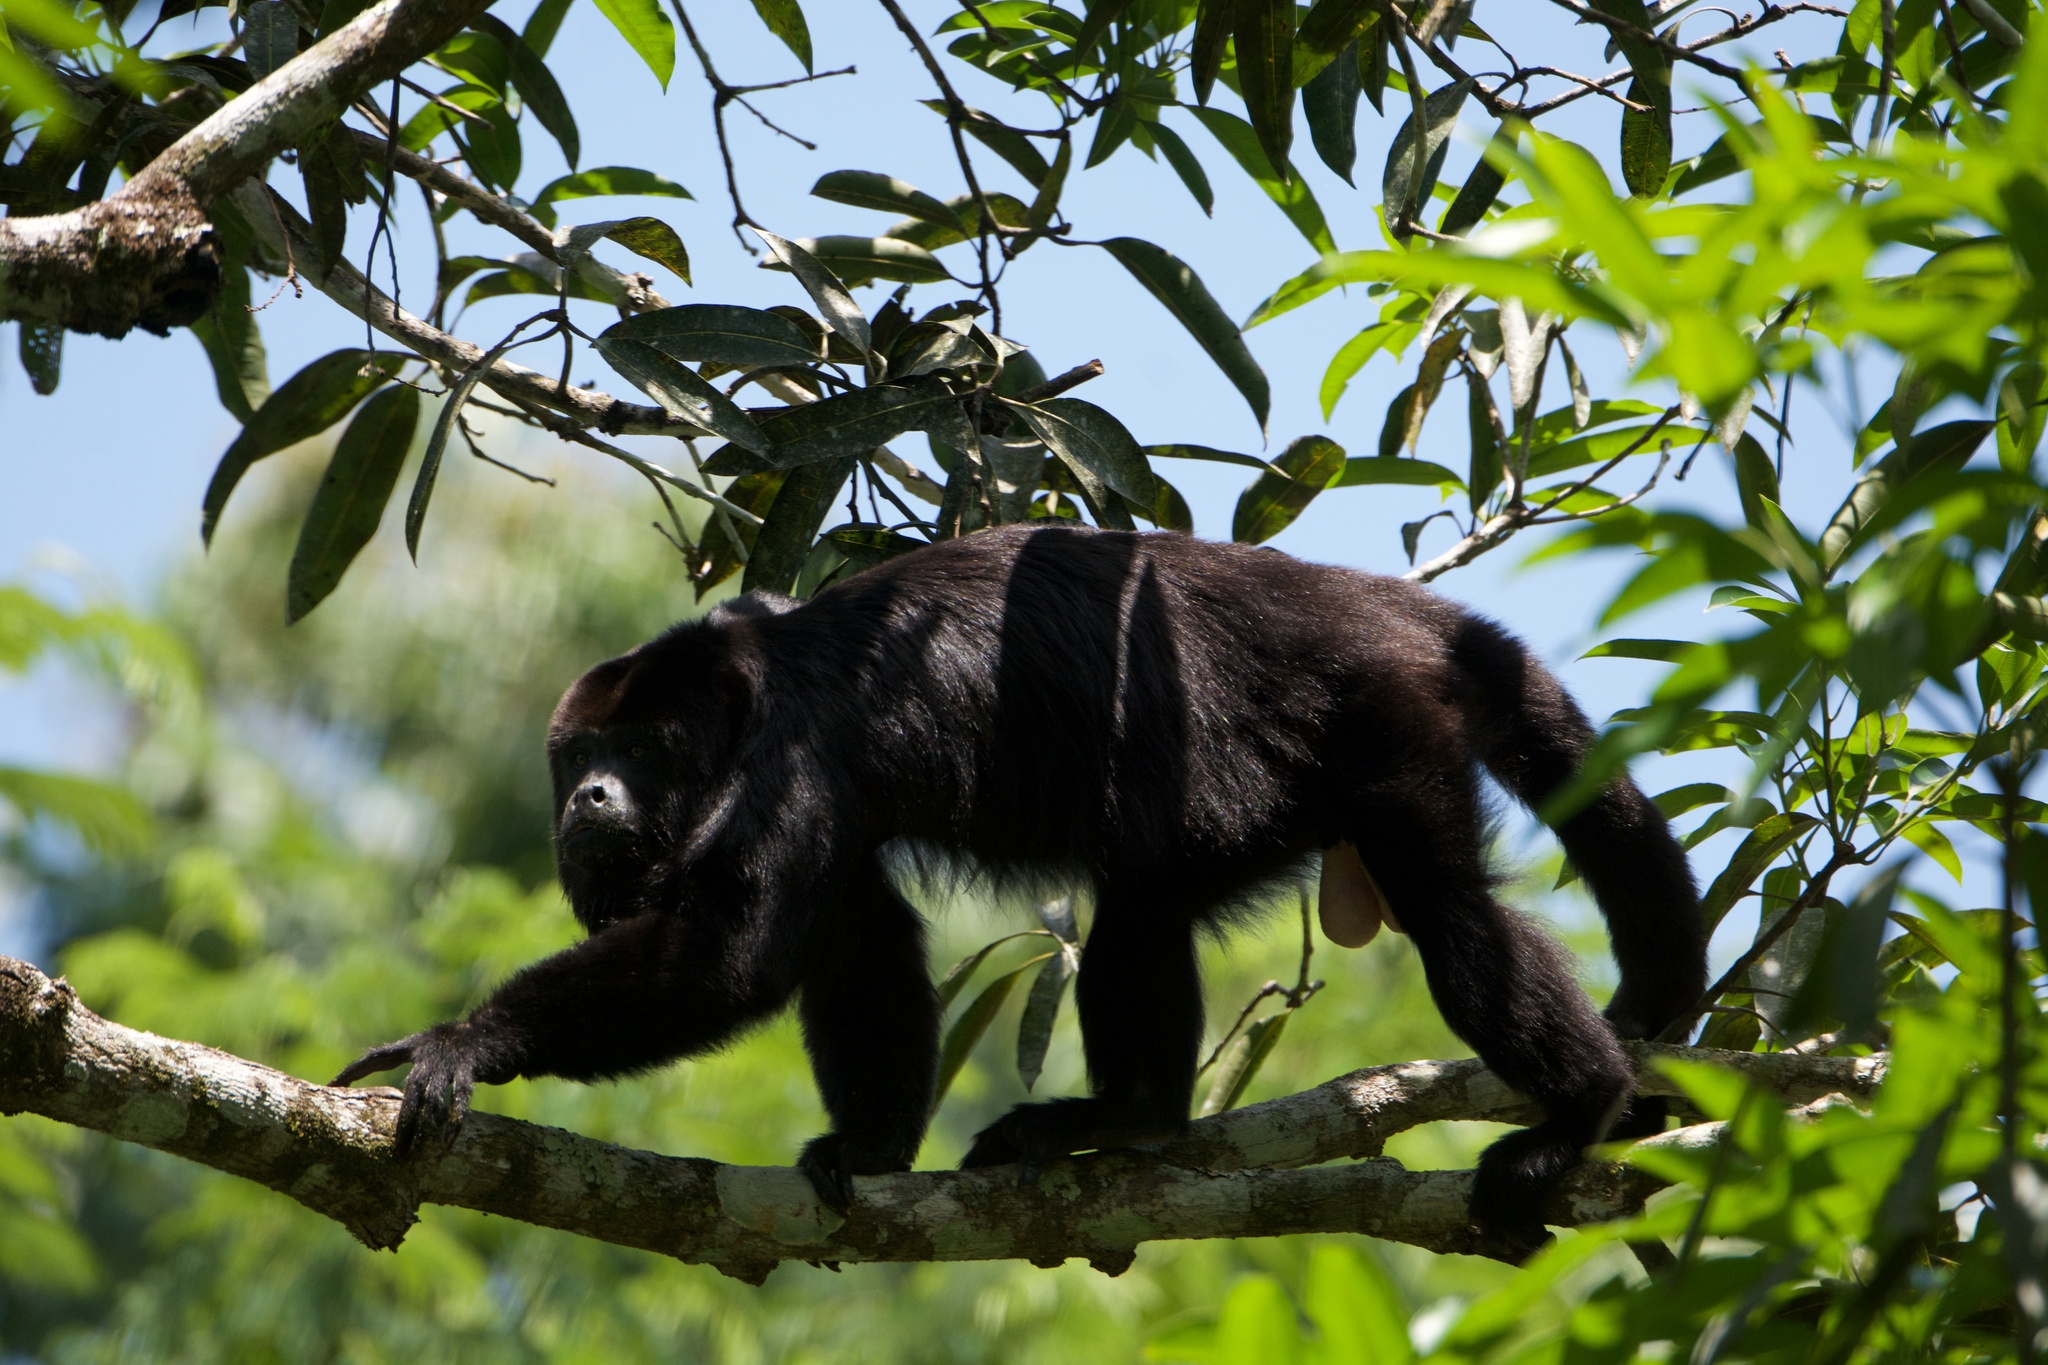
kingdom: Animalia
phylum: Chordata
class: Mammalia
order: Primates
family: Atelidae
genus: Alouatta
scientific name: Alouatta pigra
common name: Guatemalan black howler
